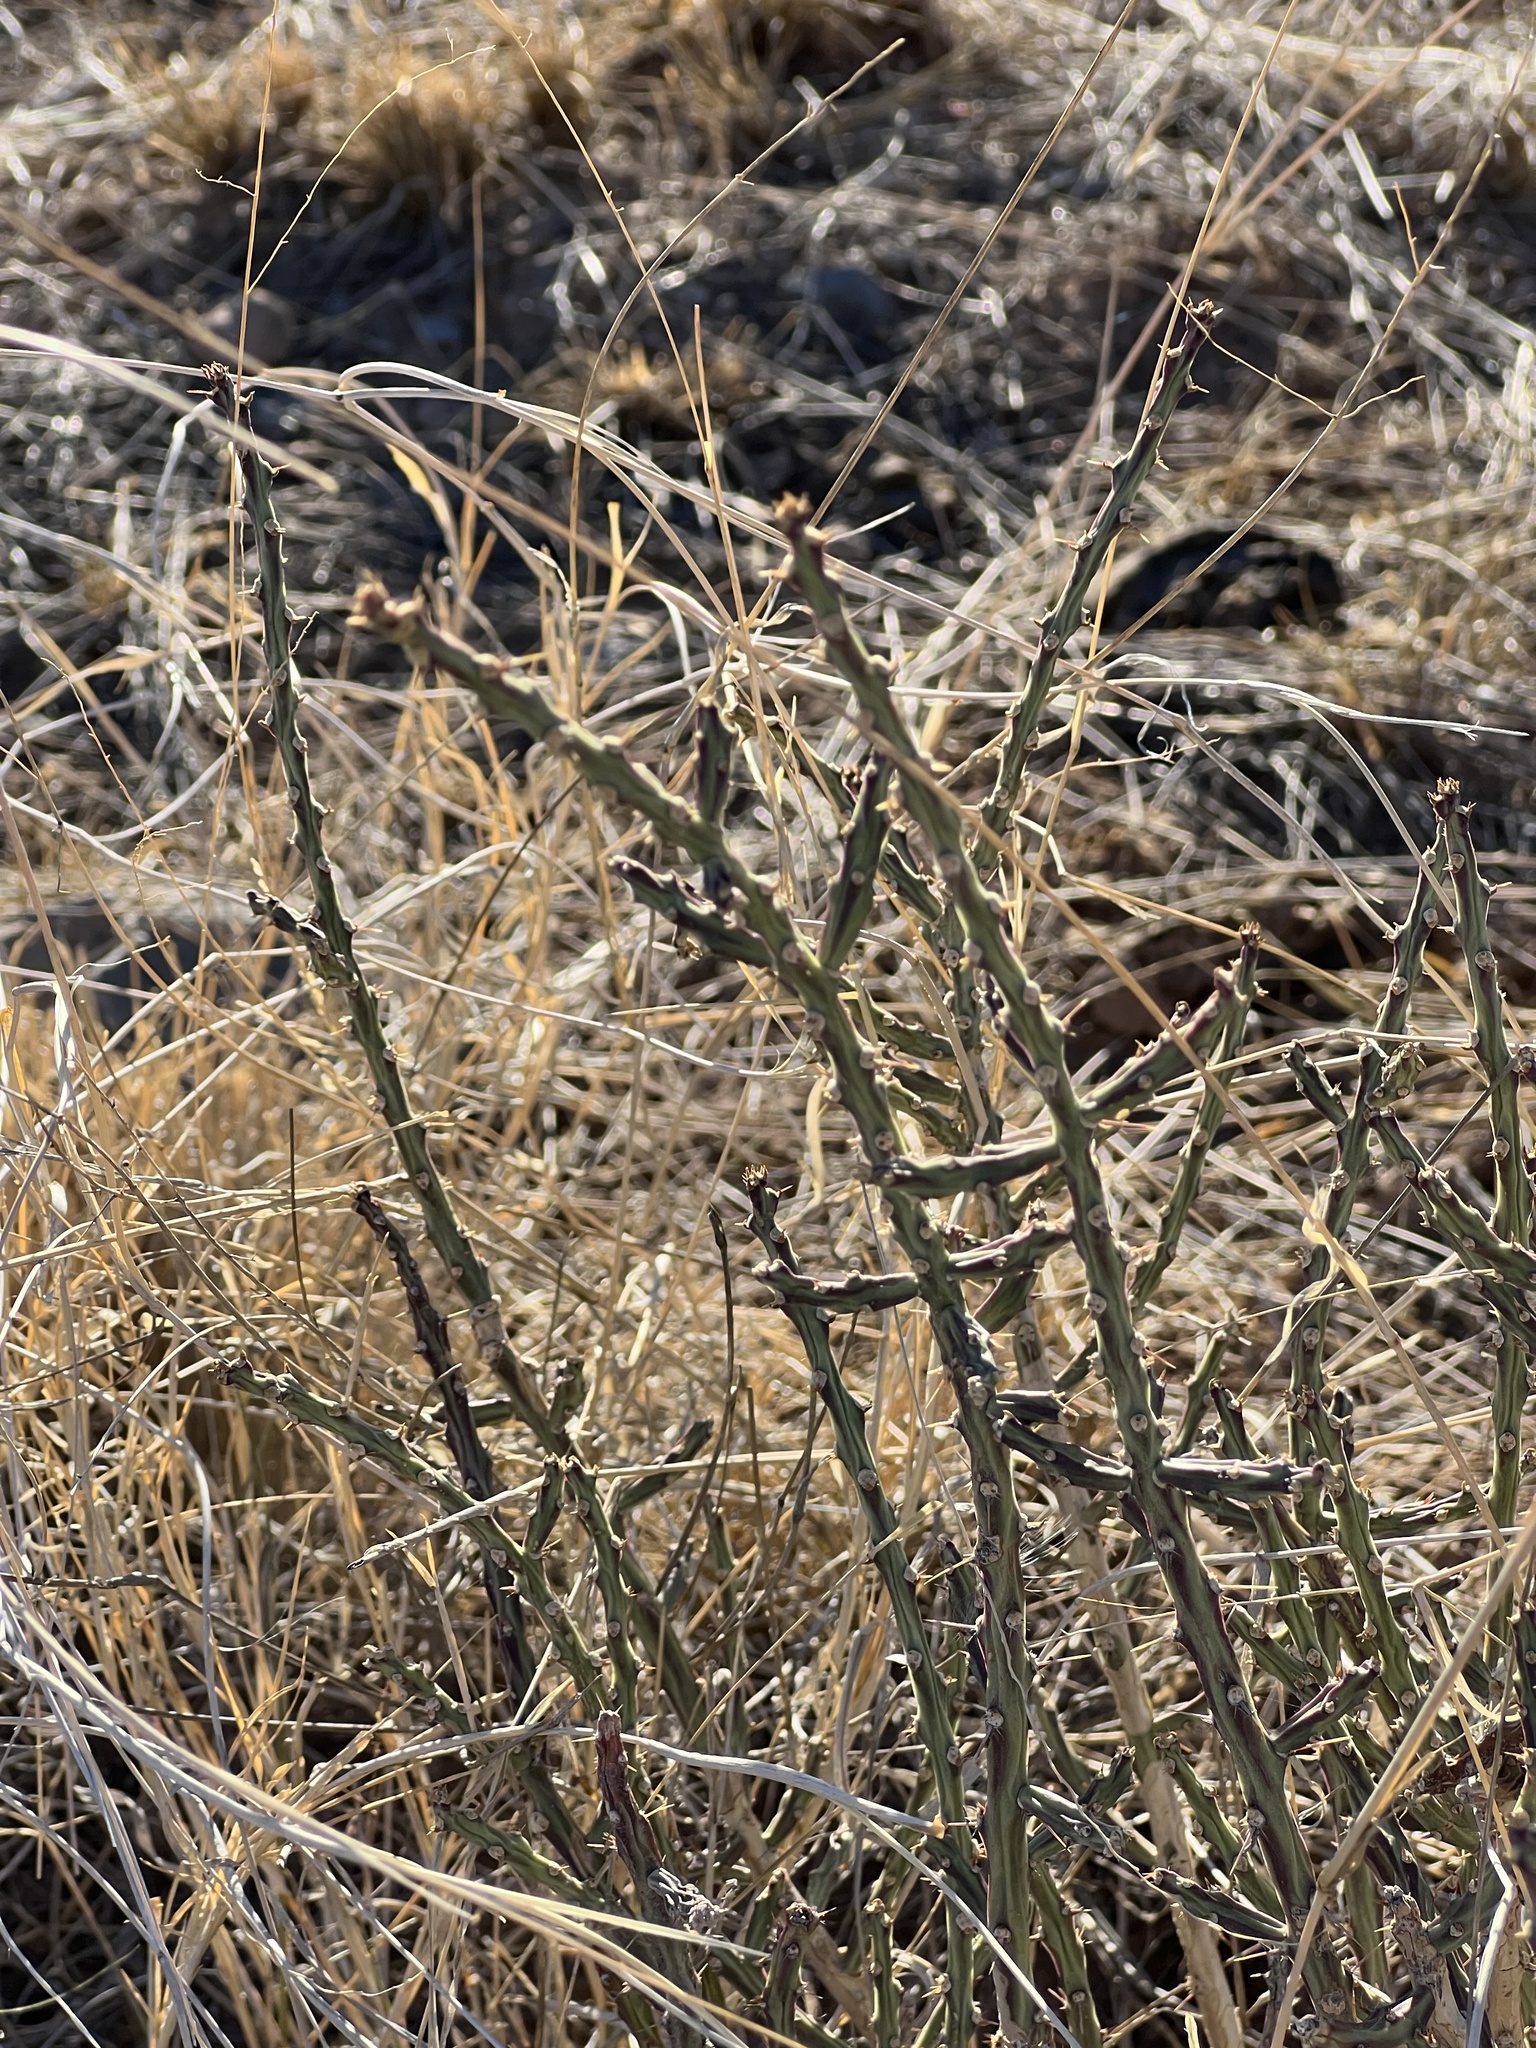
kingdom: Plantae
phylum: Tracheophyta
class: Magnoliopsida
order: Caryophyllales
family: Cactaceae
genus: Cylindropuntia
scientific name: Cylindropuntia leptocaulis
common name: Christmas cactus
